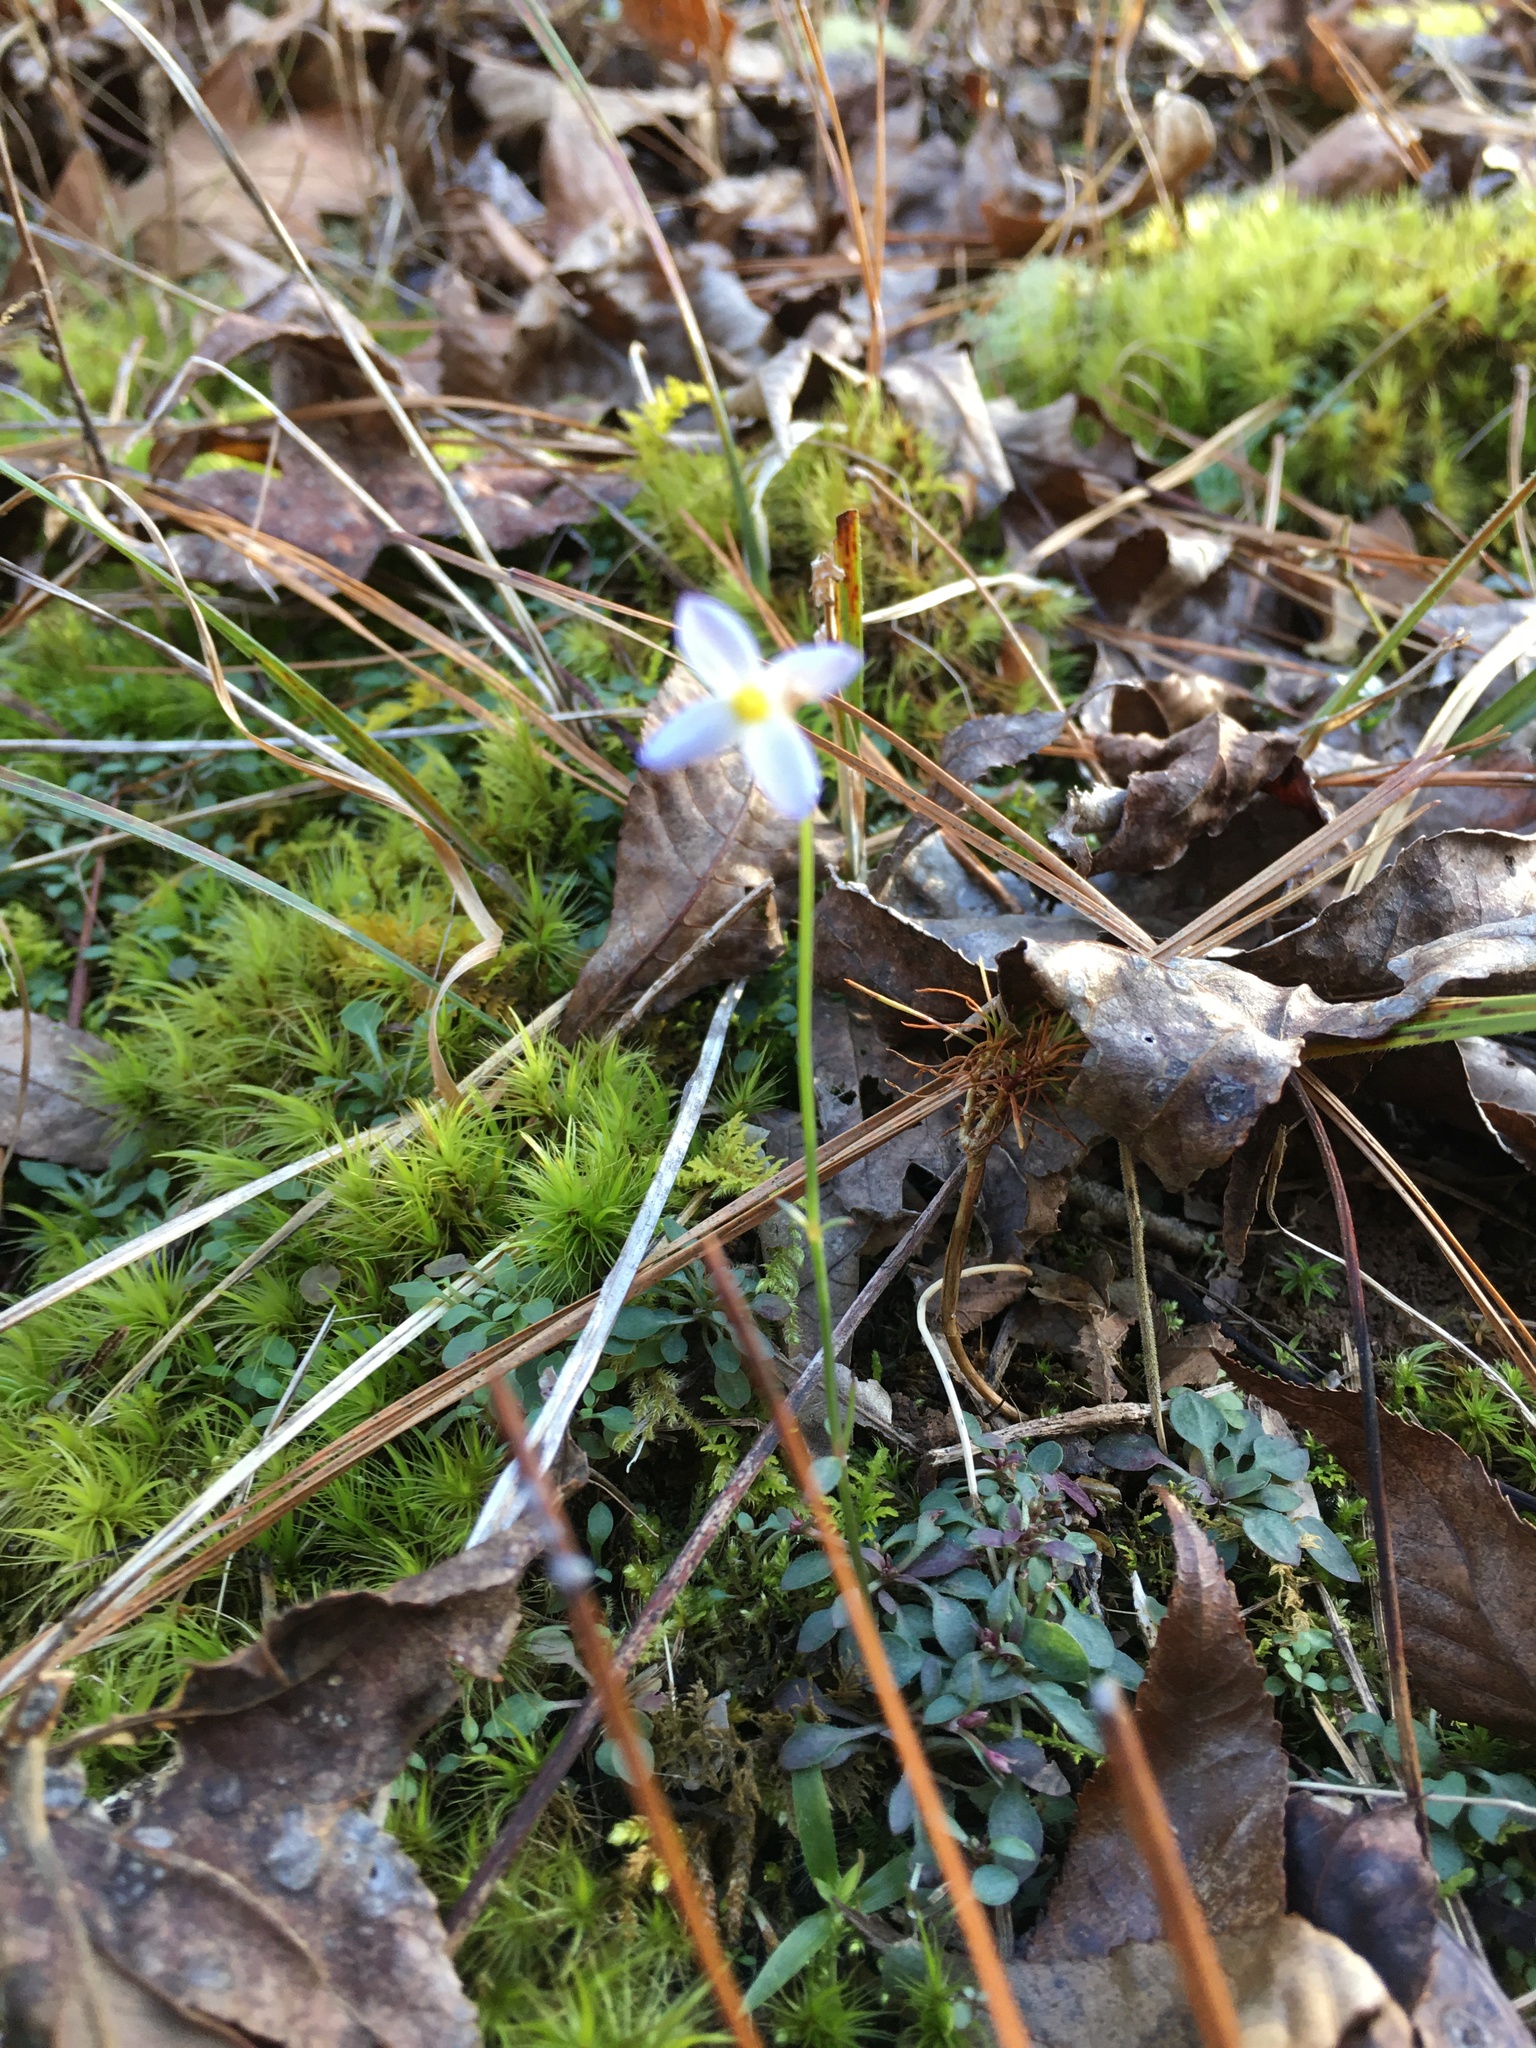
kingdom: Plantae
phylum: Tracheophyta
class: Magnoliopsida
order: Gentianales
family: Rubiaceae
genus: Houstonia
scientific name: Houstonia caerulea
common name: Bluets
